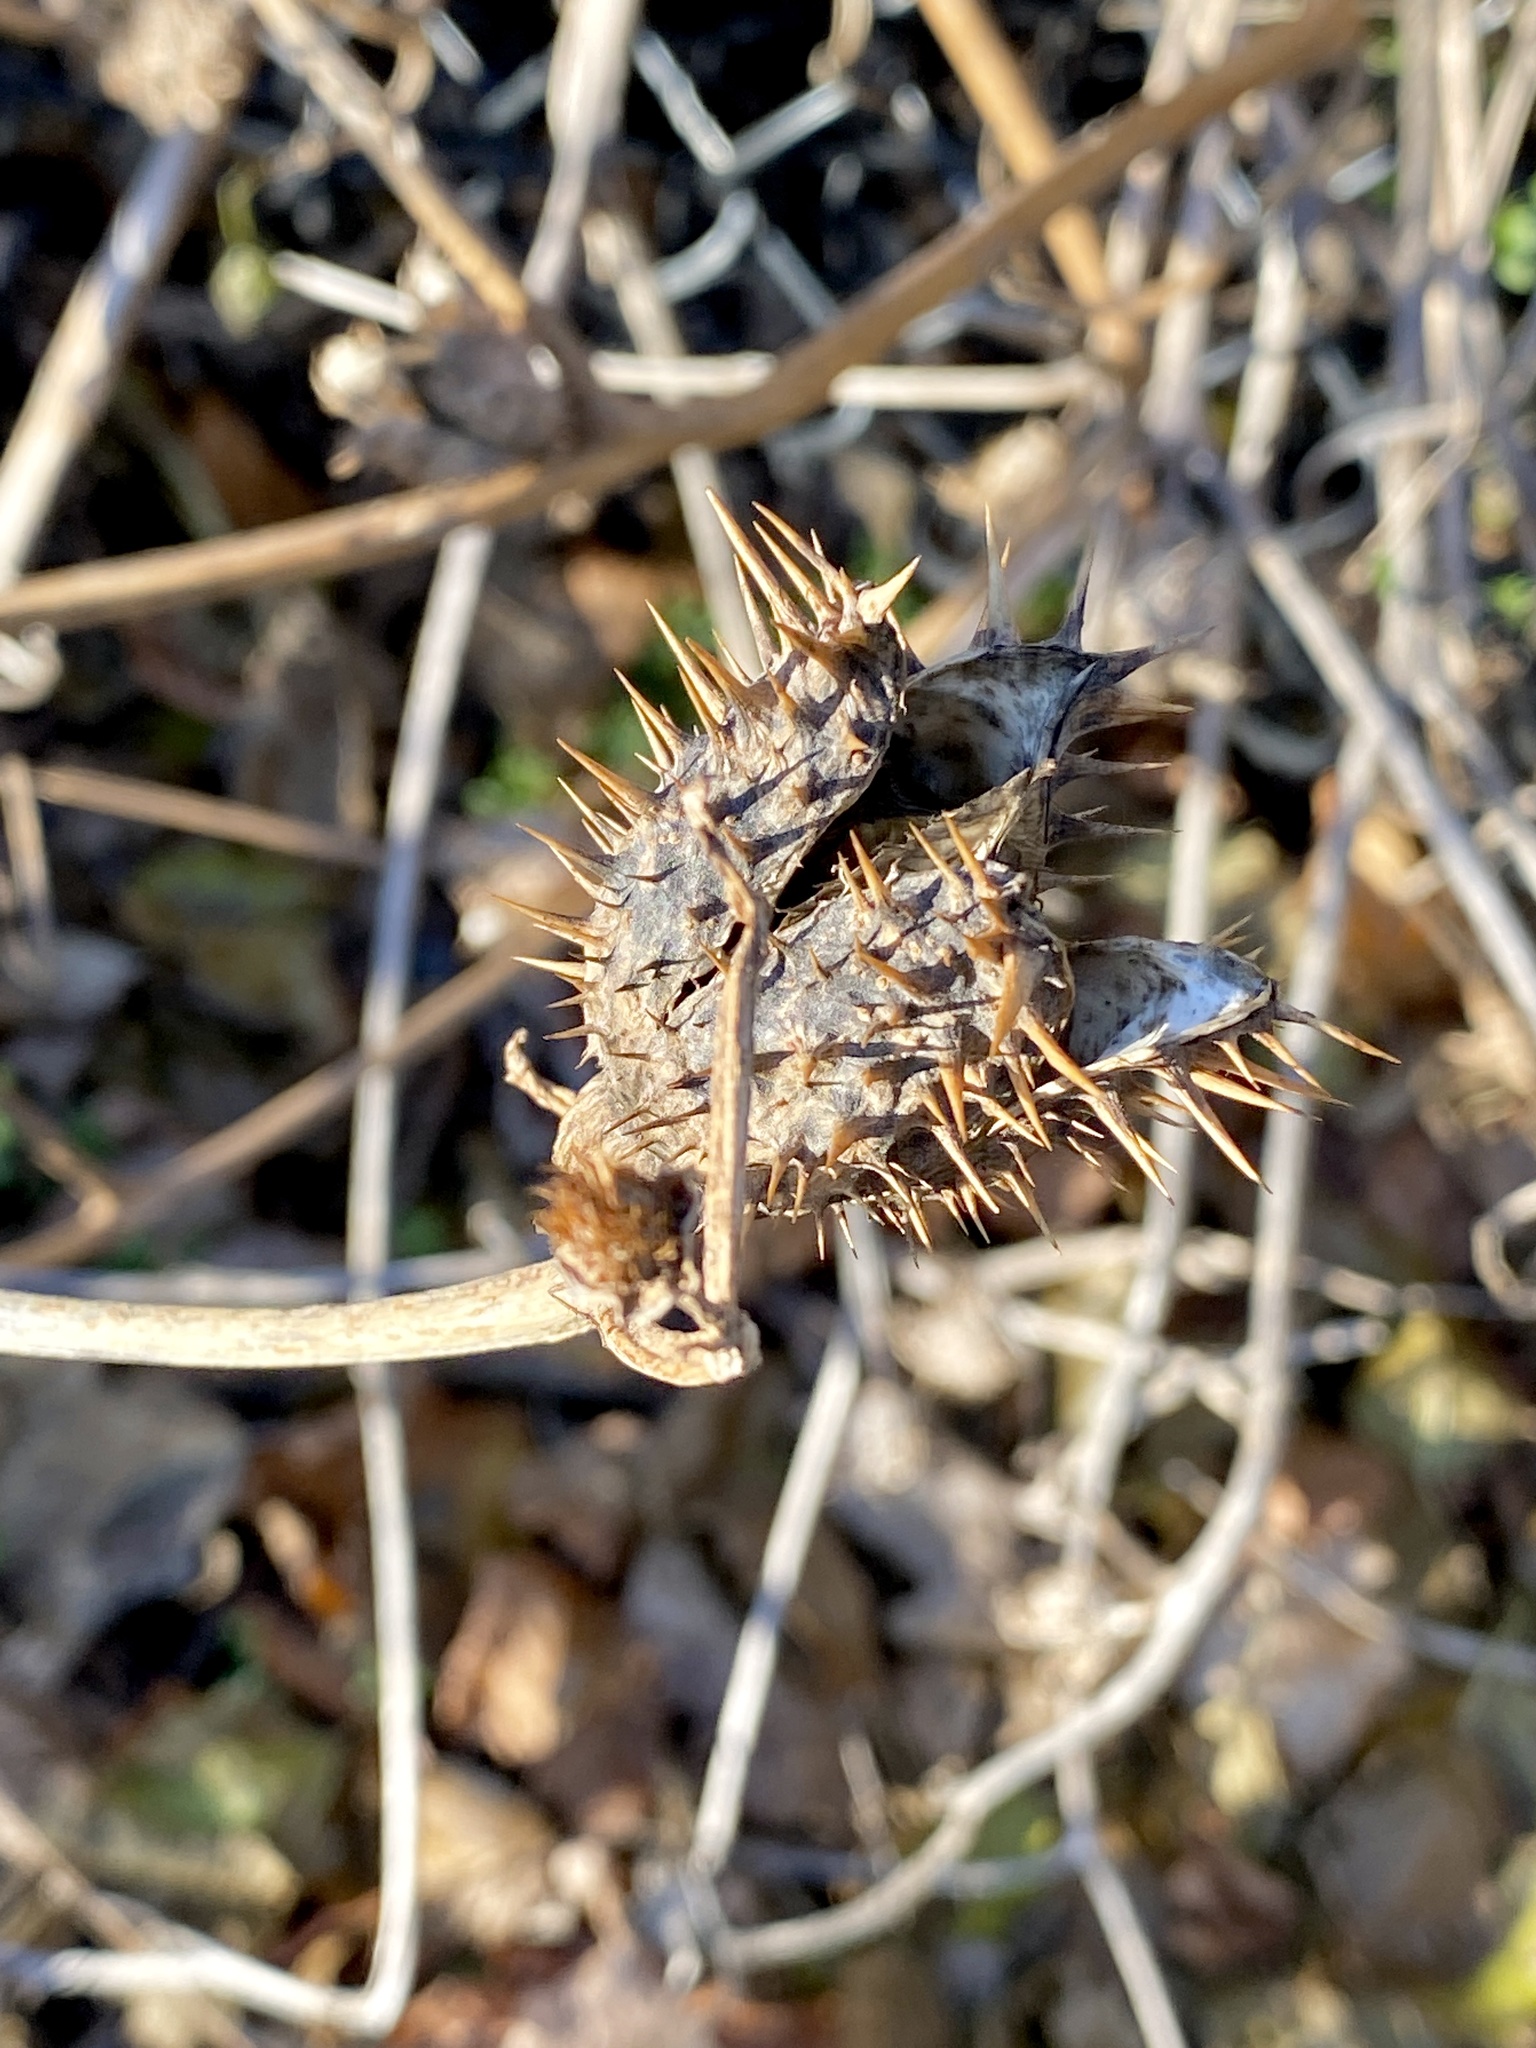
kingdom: Plantae
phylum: Tracheophyta
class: Magnoliopsida
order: Solanales
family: Solanaceae
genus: Datura
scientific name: Datura stramonium
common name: Thorn-apple
